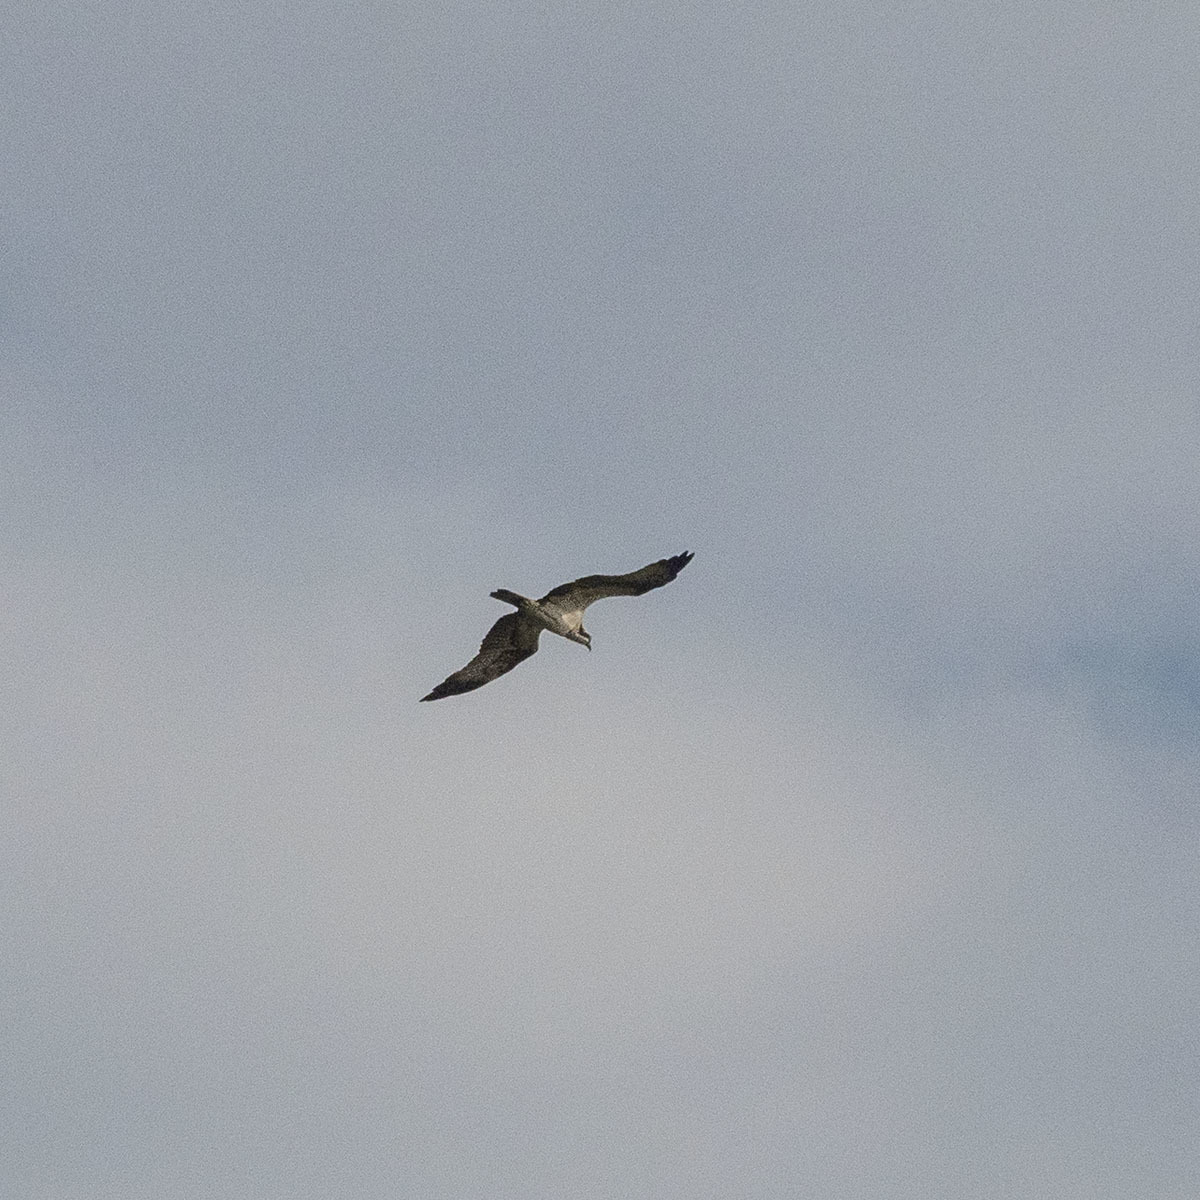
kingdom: Animalia
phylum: Chordata
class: Aves
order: Accipitriformes
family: Pandionidae
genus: Pandion
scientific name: Pandion haliaetus
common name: Osprey
